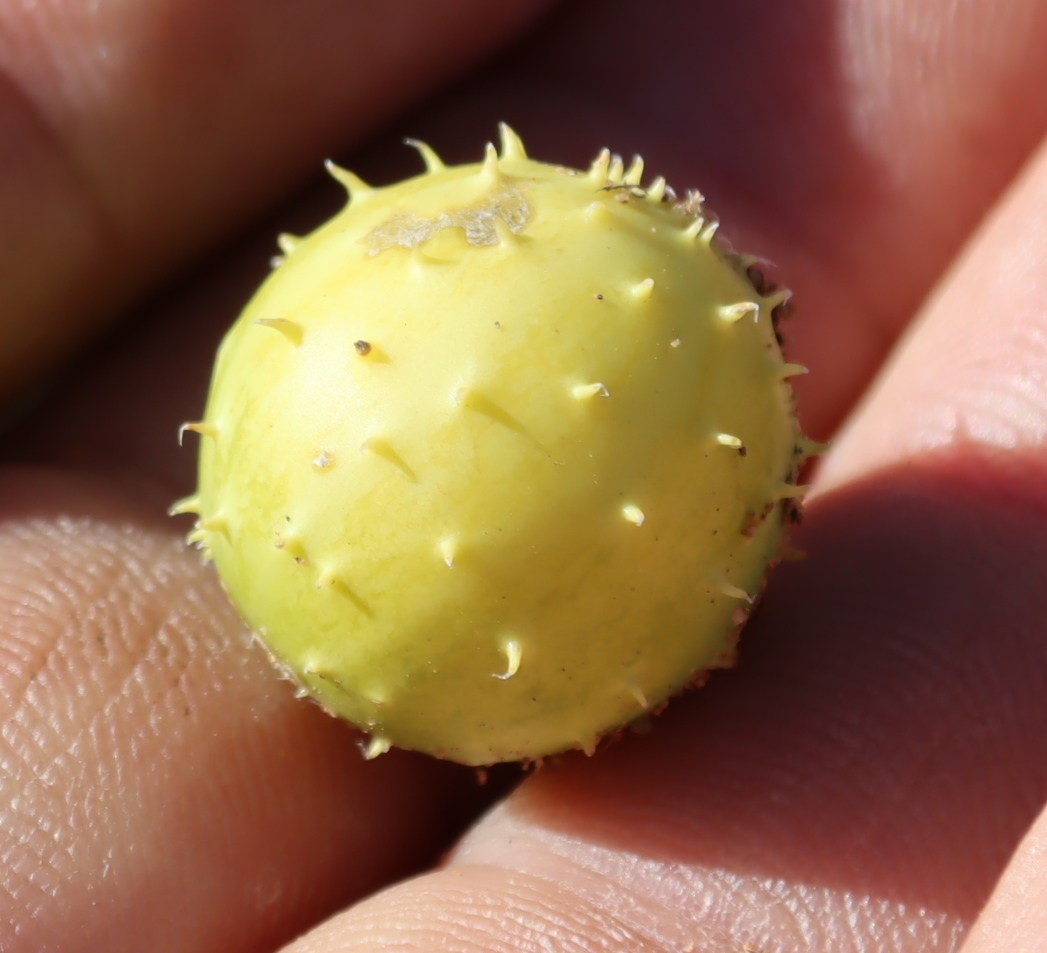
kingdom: Plantae
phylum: Tracheophyta
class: Magnoliopsida
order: Cucurbitales
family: Cucurbitaceae
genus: Cucumis
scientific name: Cucumis myriocarpus
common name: Gooseberry cucumber
